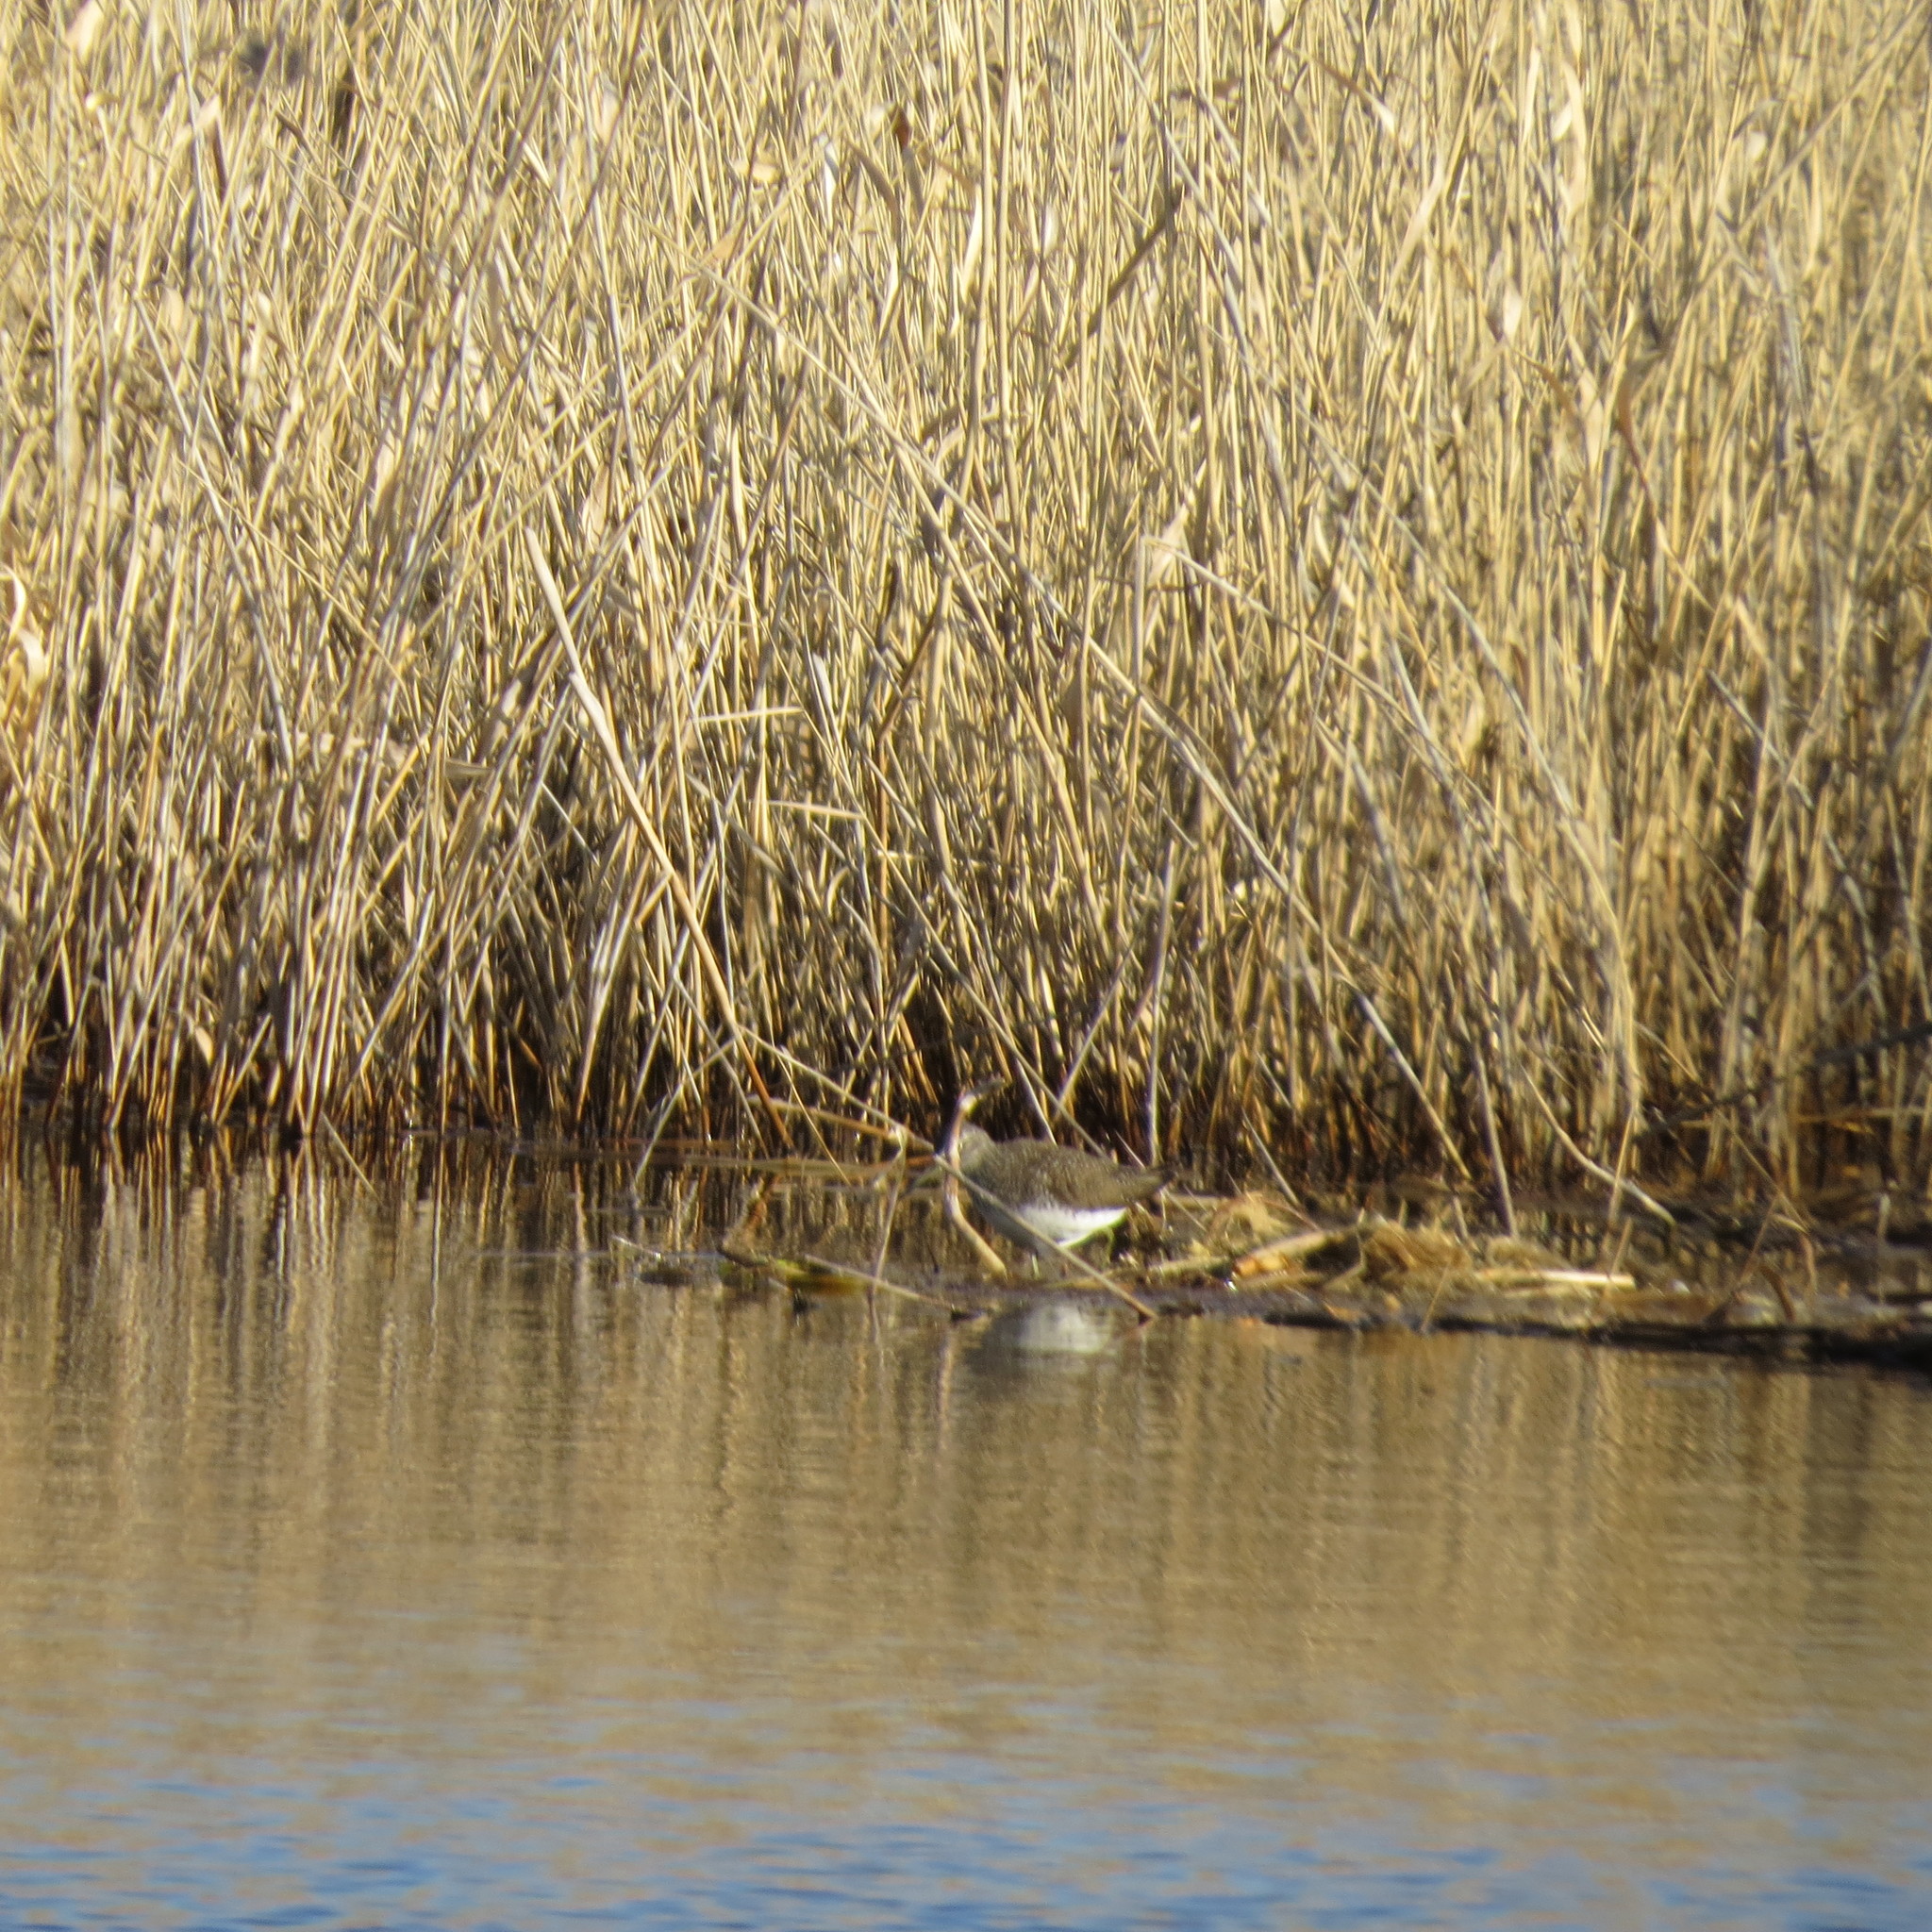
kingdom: Animalia
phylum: Chordata
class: Aves
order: Charadriiformes
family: Scolopacidae
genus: Tringa
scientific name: Tringa ochropus
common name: Green sandpiper
